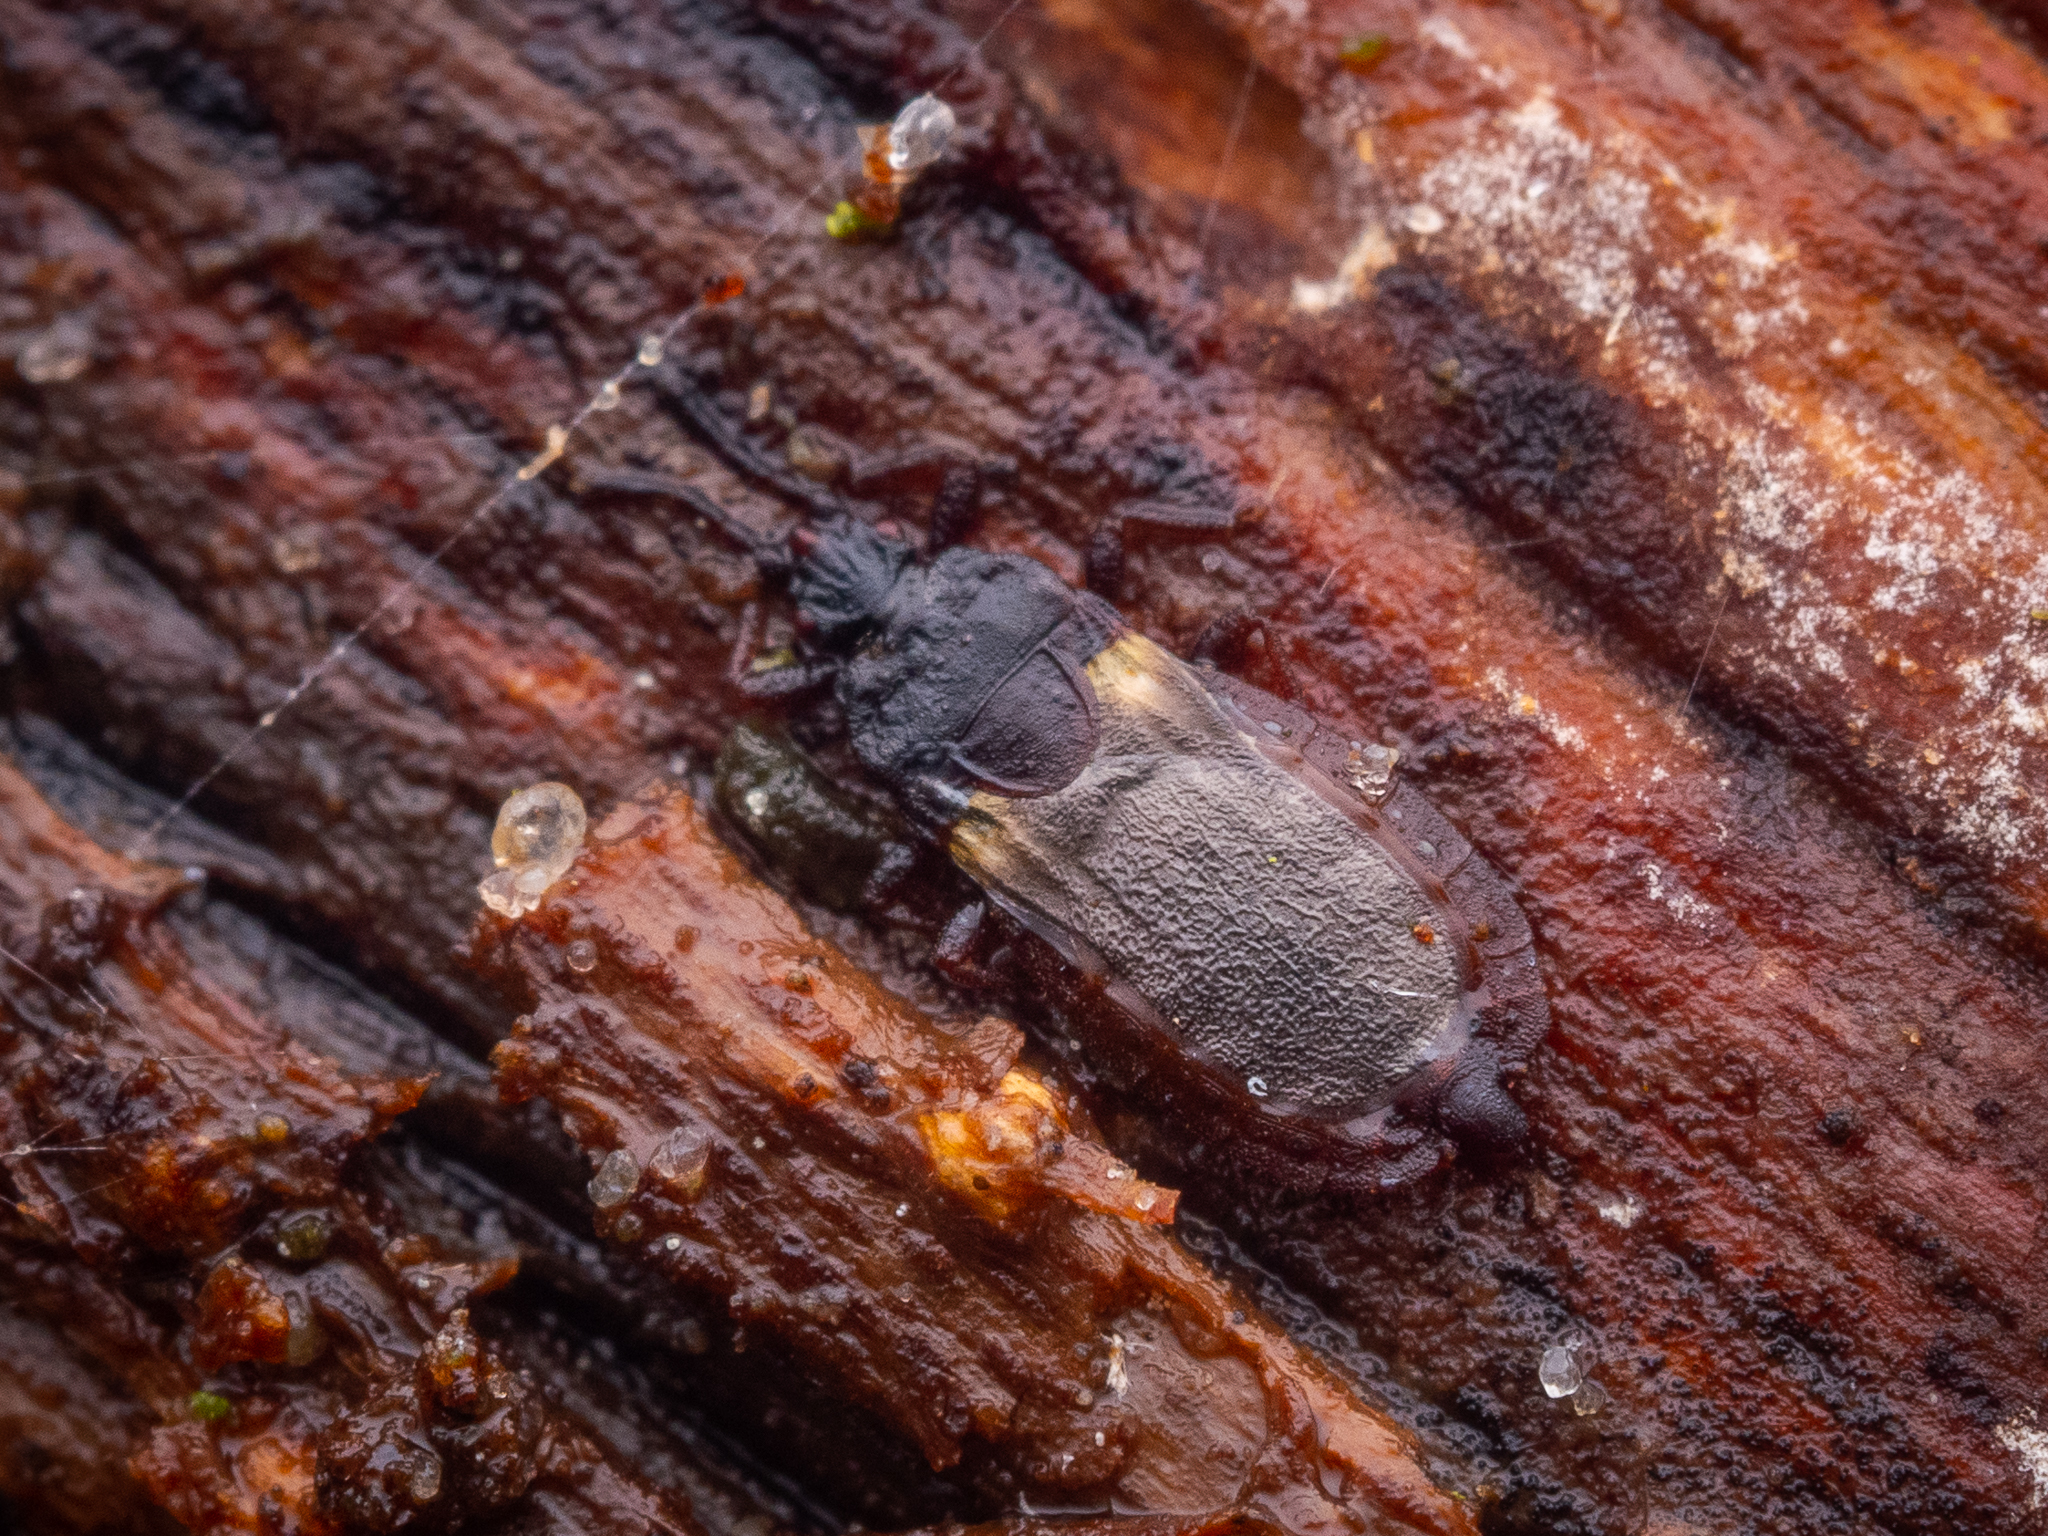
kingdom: Animalia
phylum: Arthropoda
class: Insecta
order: Hemiptera
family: Aradidae
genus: Aneurus
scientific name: Aneurus avenius
